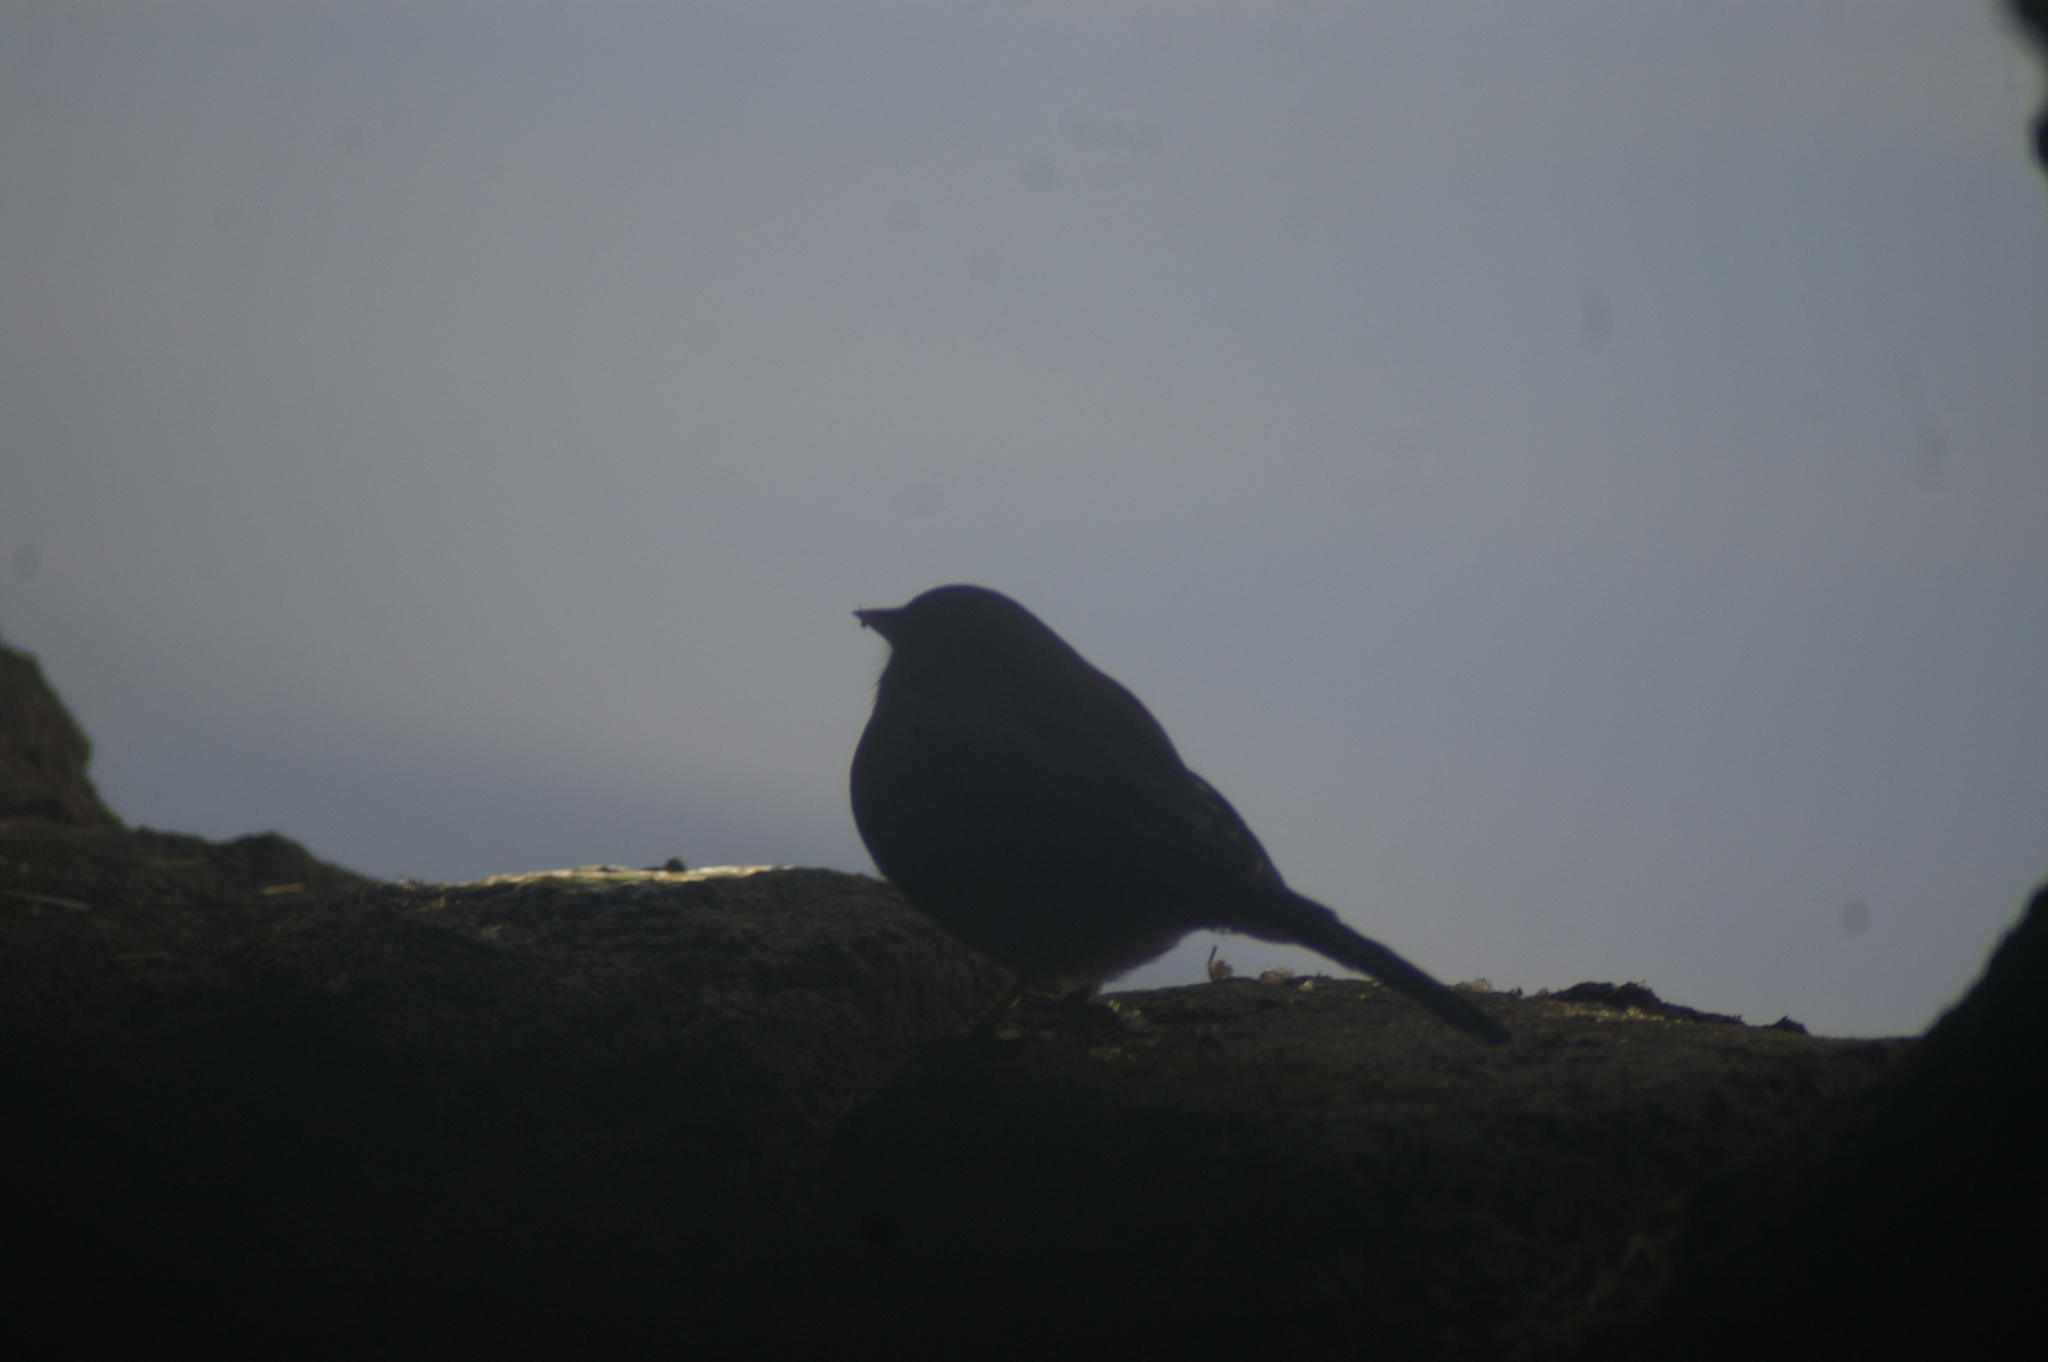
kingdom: Animalia
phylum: Chordata
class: Aves
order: Passeriformes
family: Passerellidae
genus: Junco
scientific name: Junco hyemalis
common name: Dark-eyed junco
